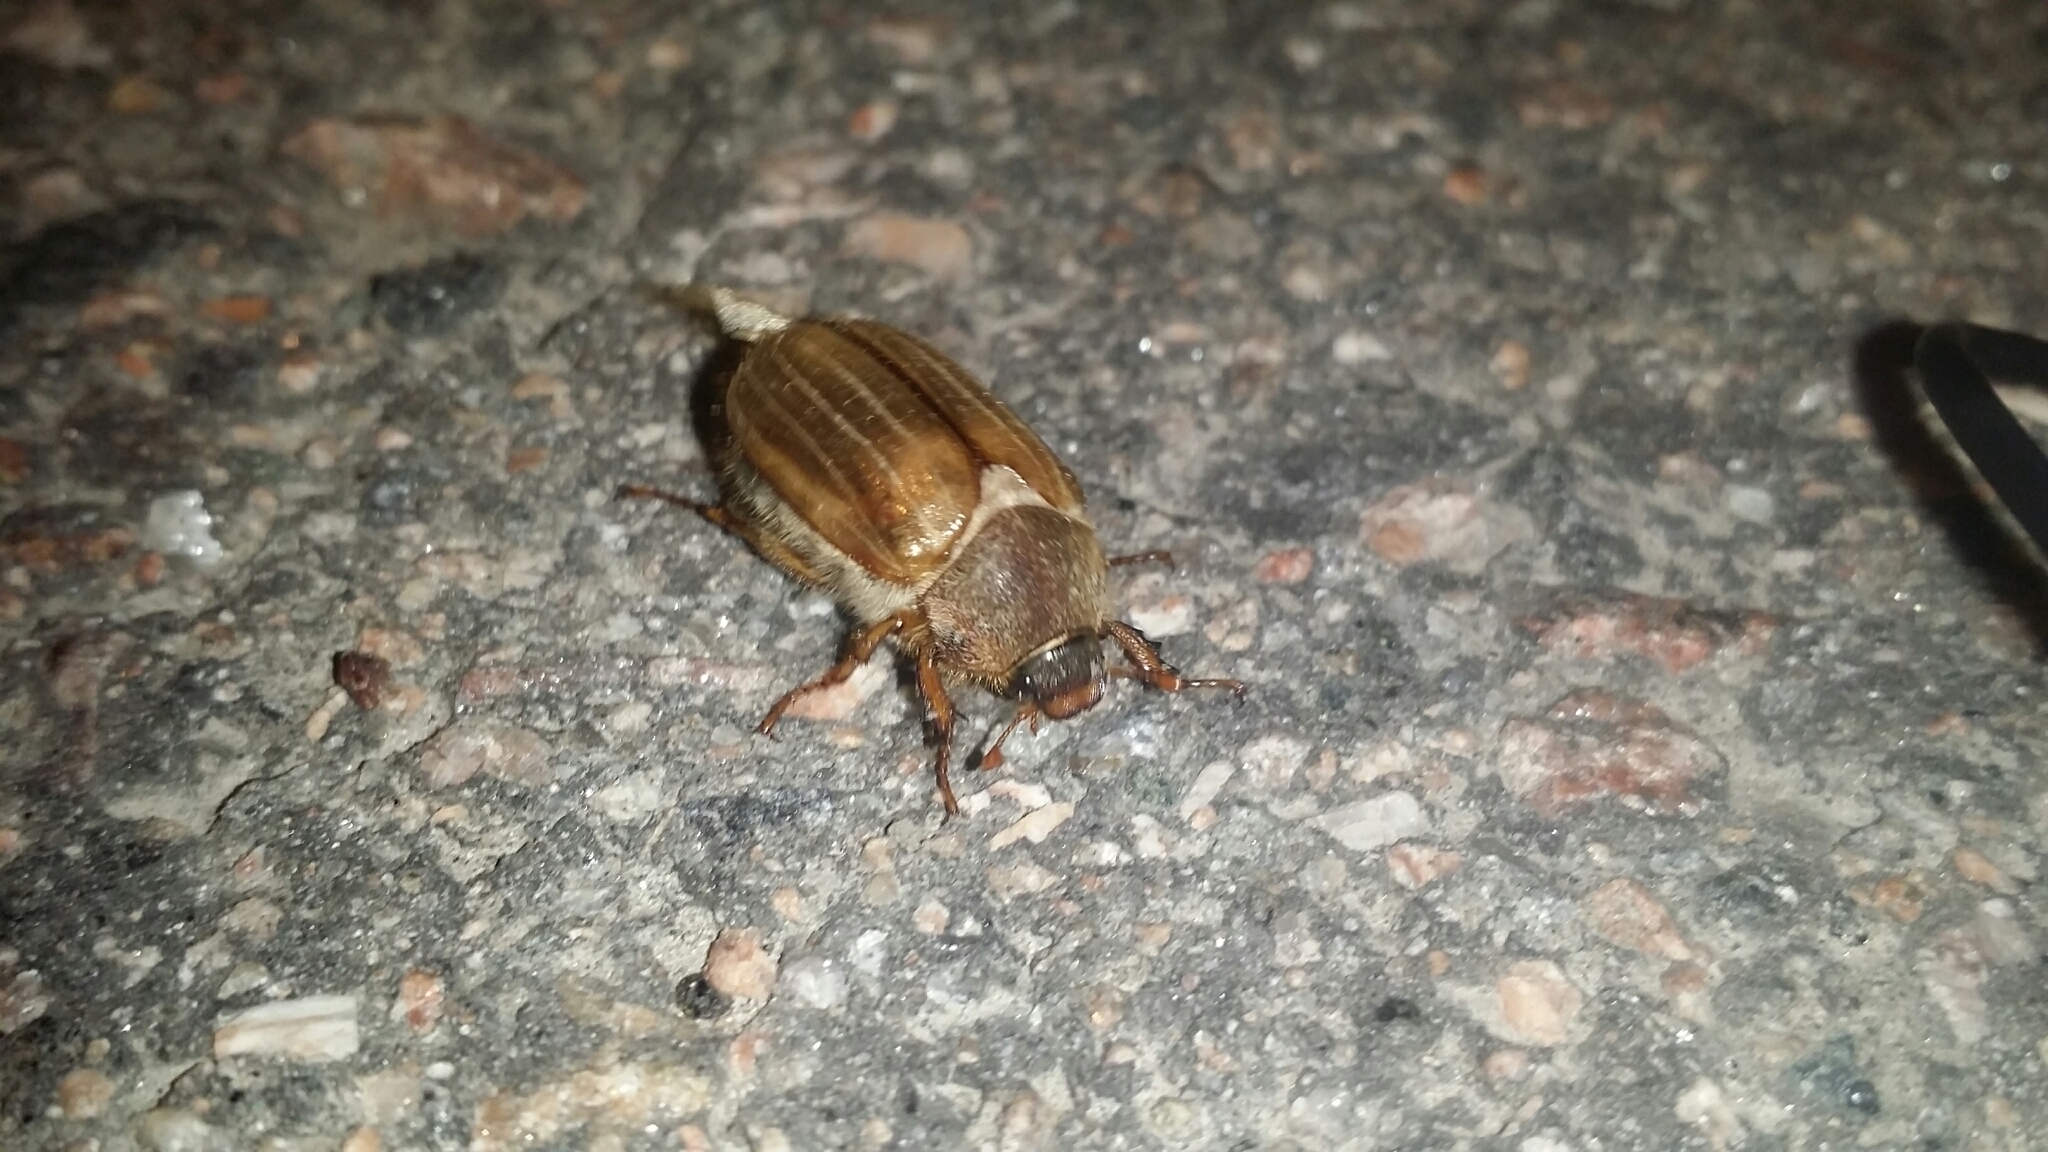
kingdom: Animalia
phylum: Arthropoda
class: Insecta
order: Coleoptera
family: Scarabaeidae
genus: Amphimallon
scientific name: Amphimallon solstitiale
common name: Summer chafer
